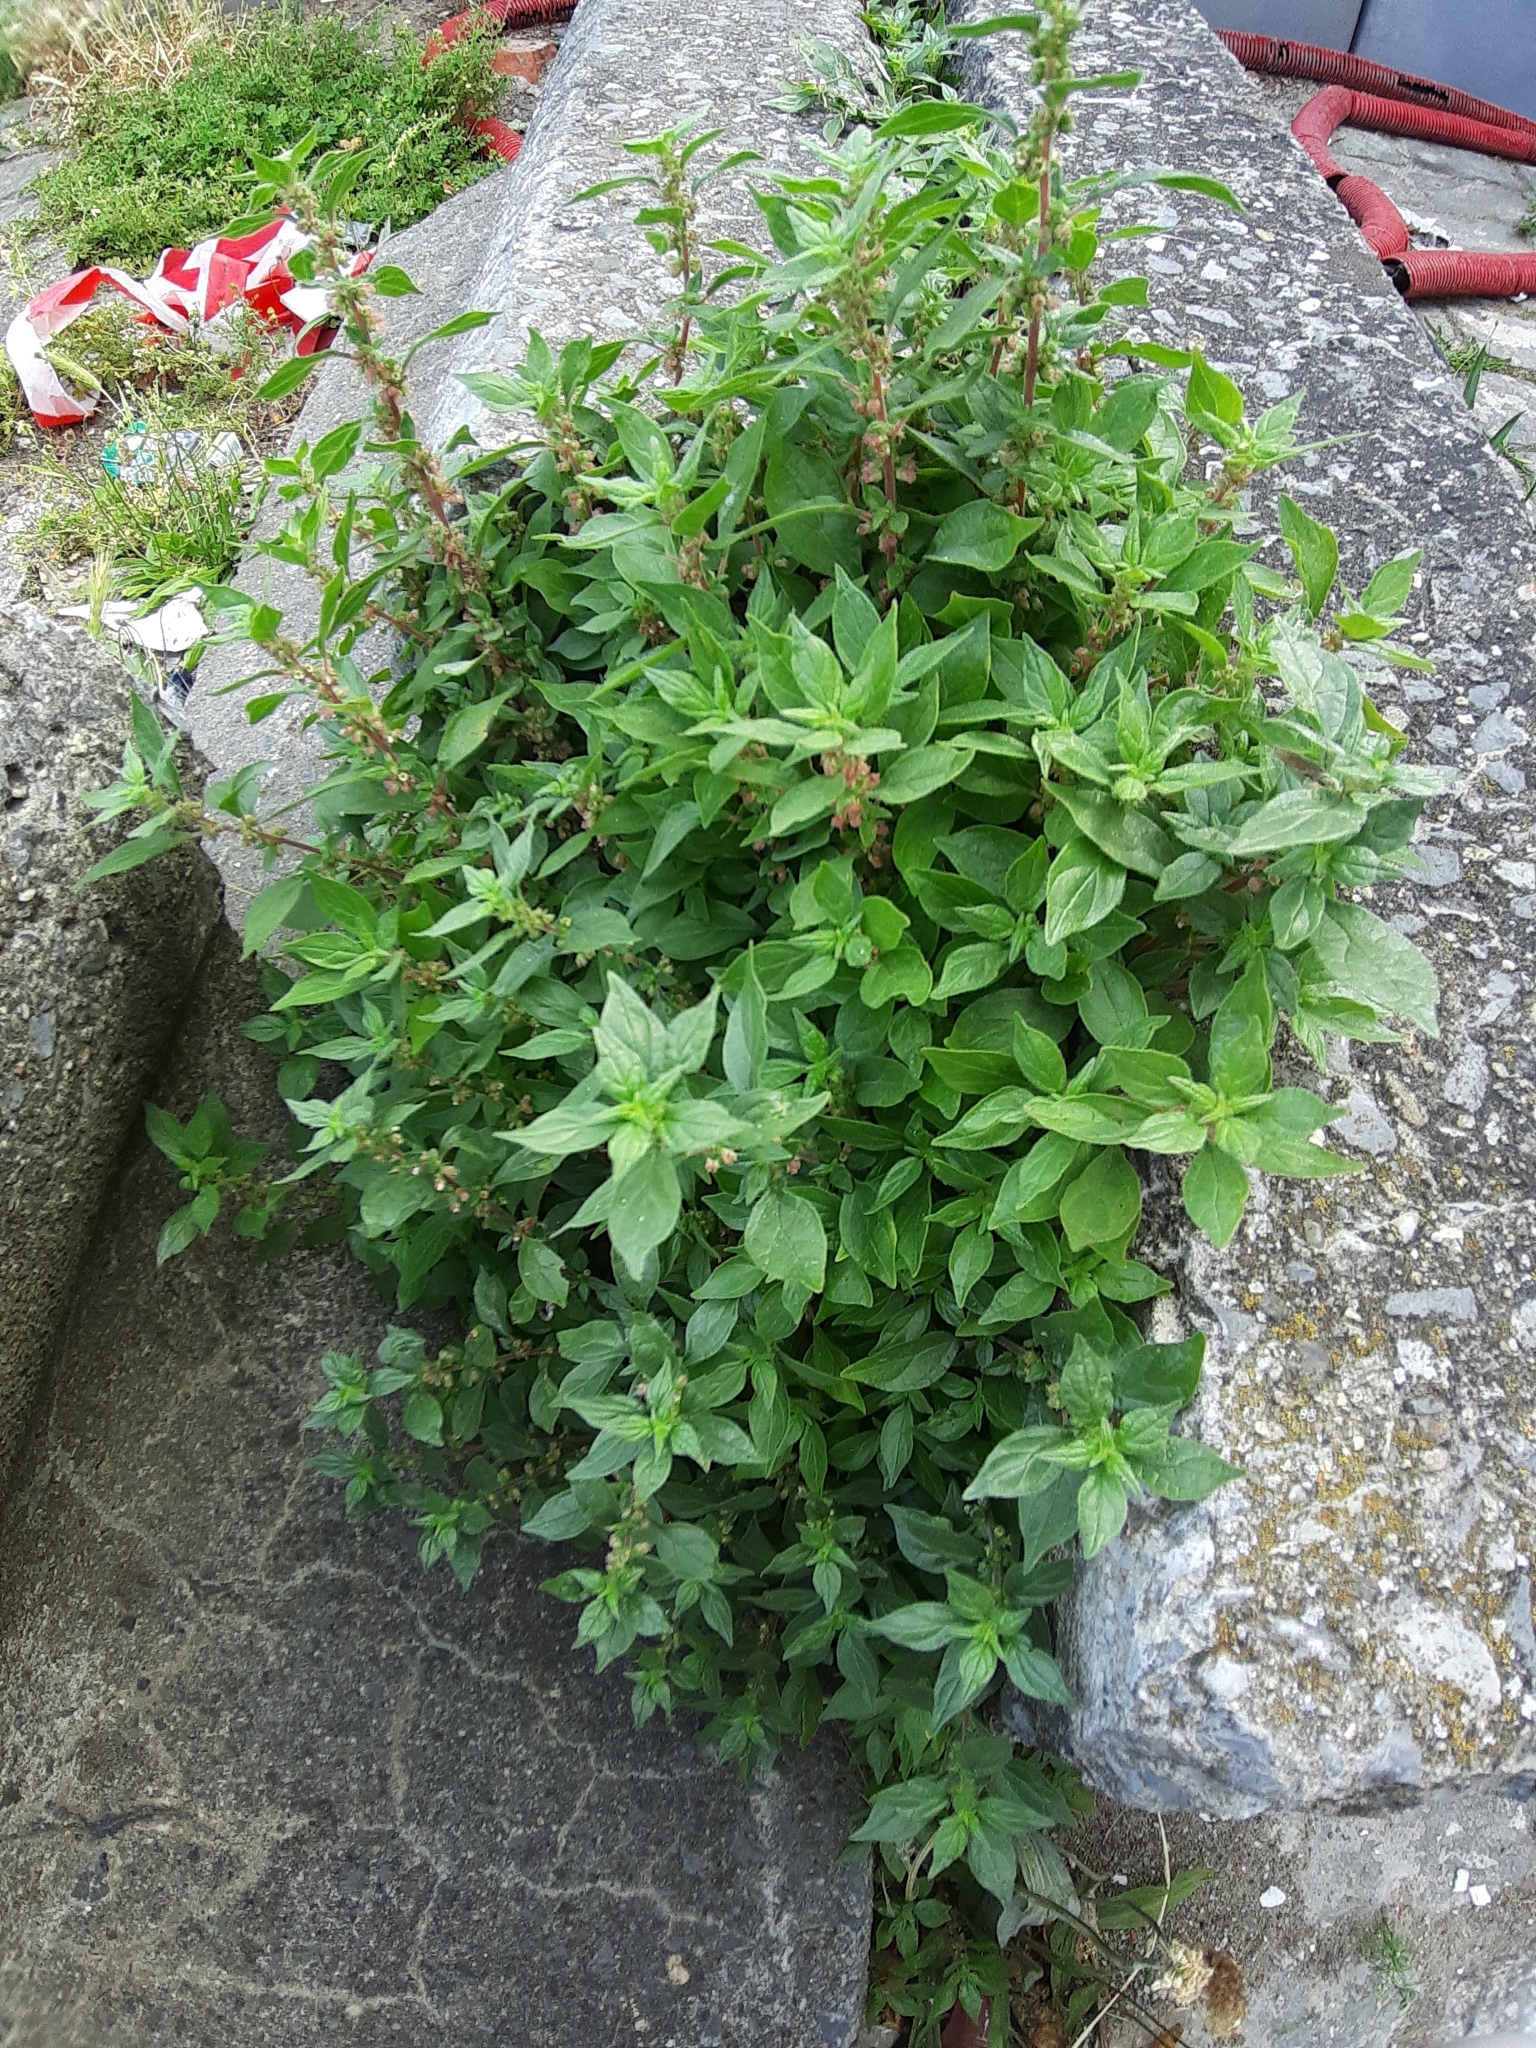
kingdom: Plantae
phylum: Tracheophyta
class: Magnoliopsida
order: Rosales
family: Urticaceae
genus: Parietaria
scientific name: Parietaria judaica
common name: Pellitory-of-the-wall
